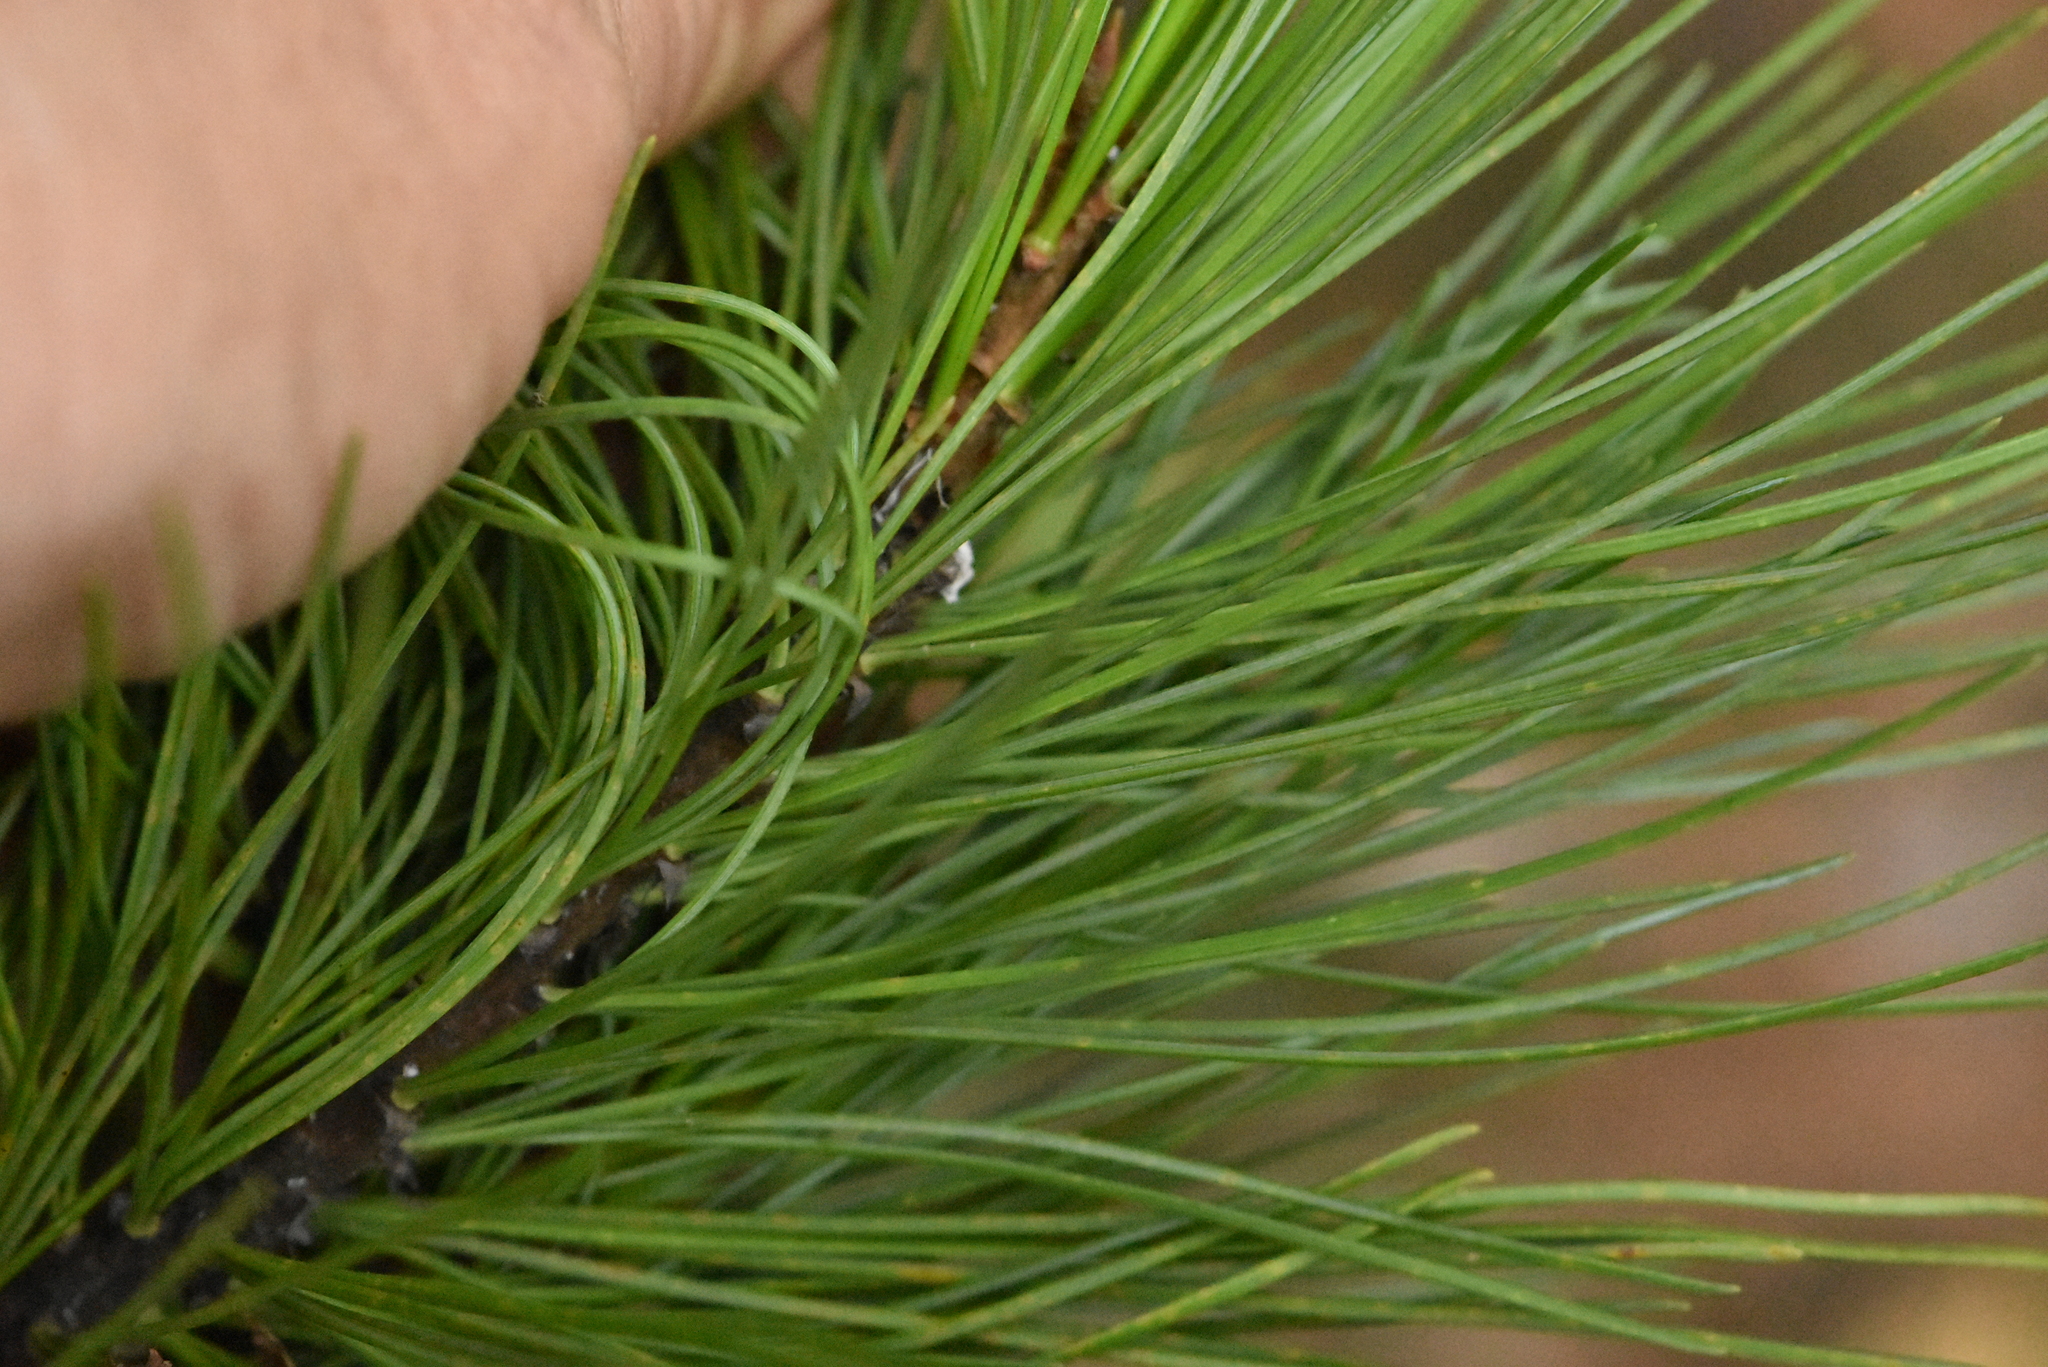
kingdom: Plantae
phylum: Tracheophyta
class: Pinopsida
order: Pinales
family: Pinaceae
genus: Pinus
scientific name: Pinus sibirica
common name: Siberian pine
